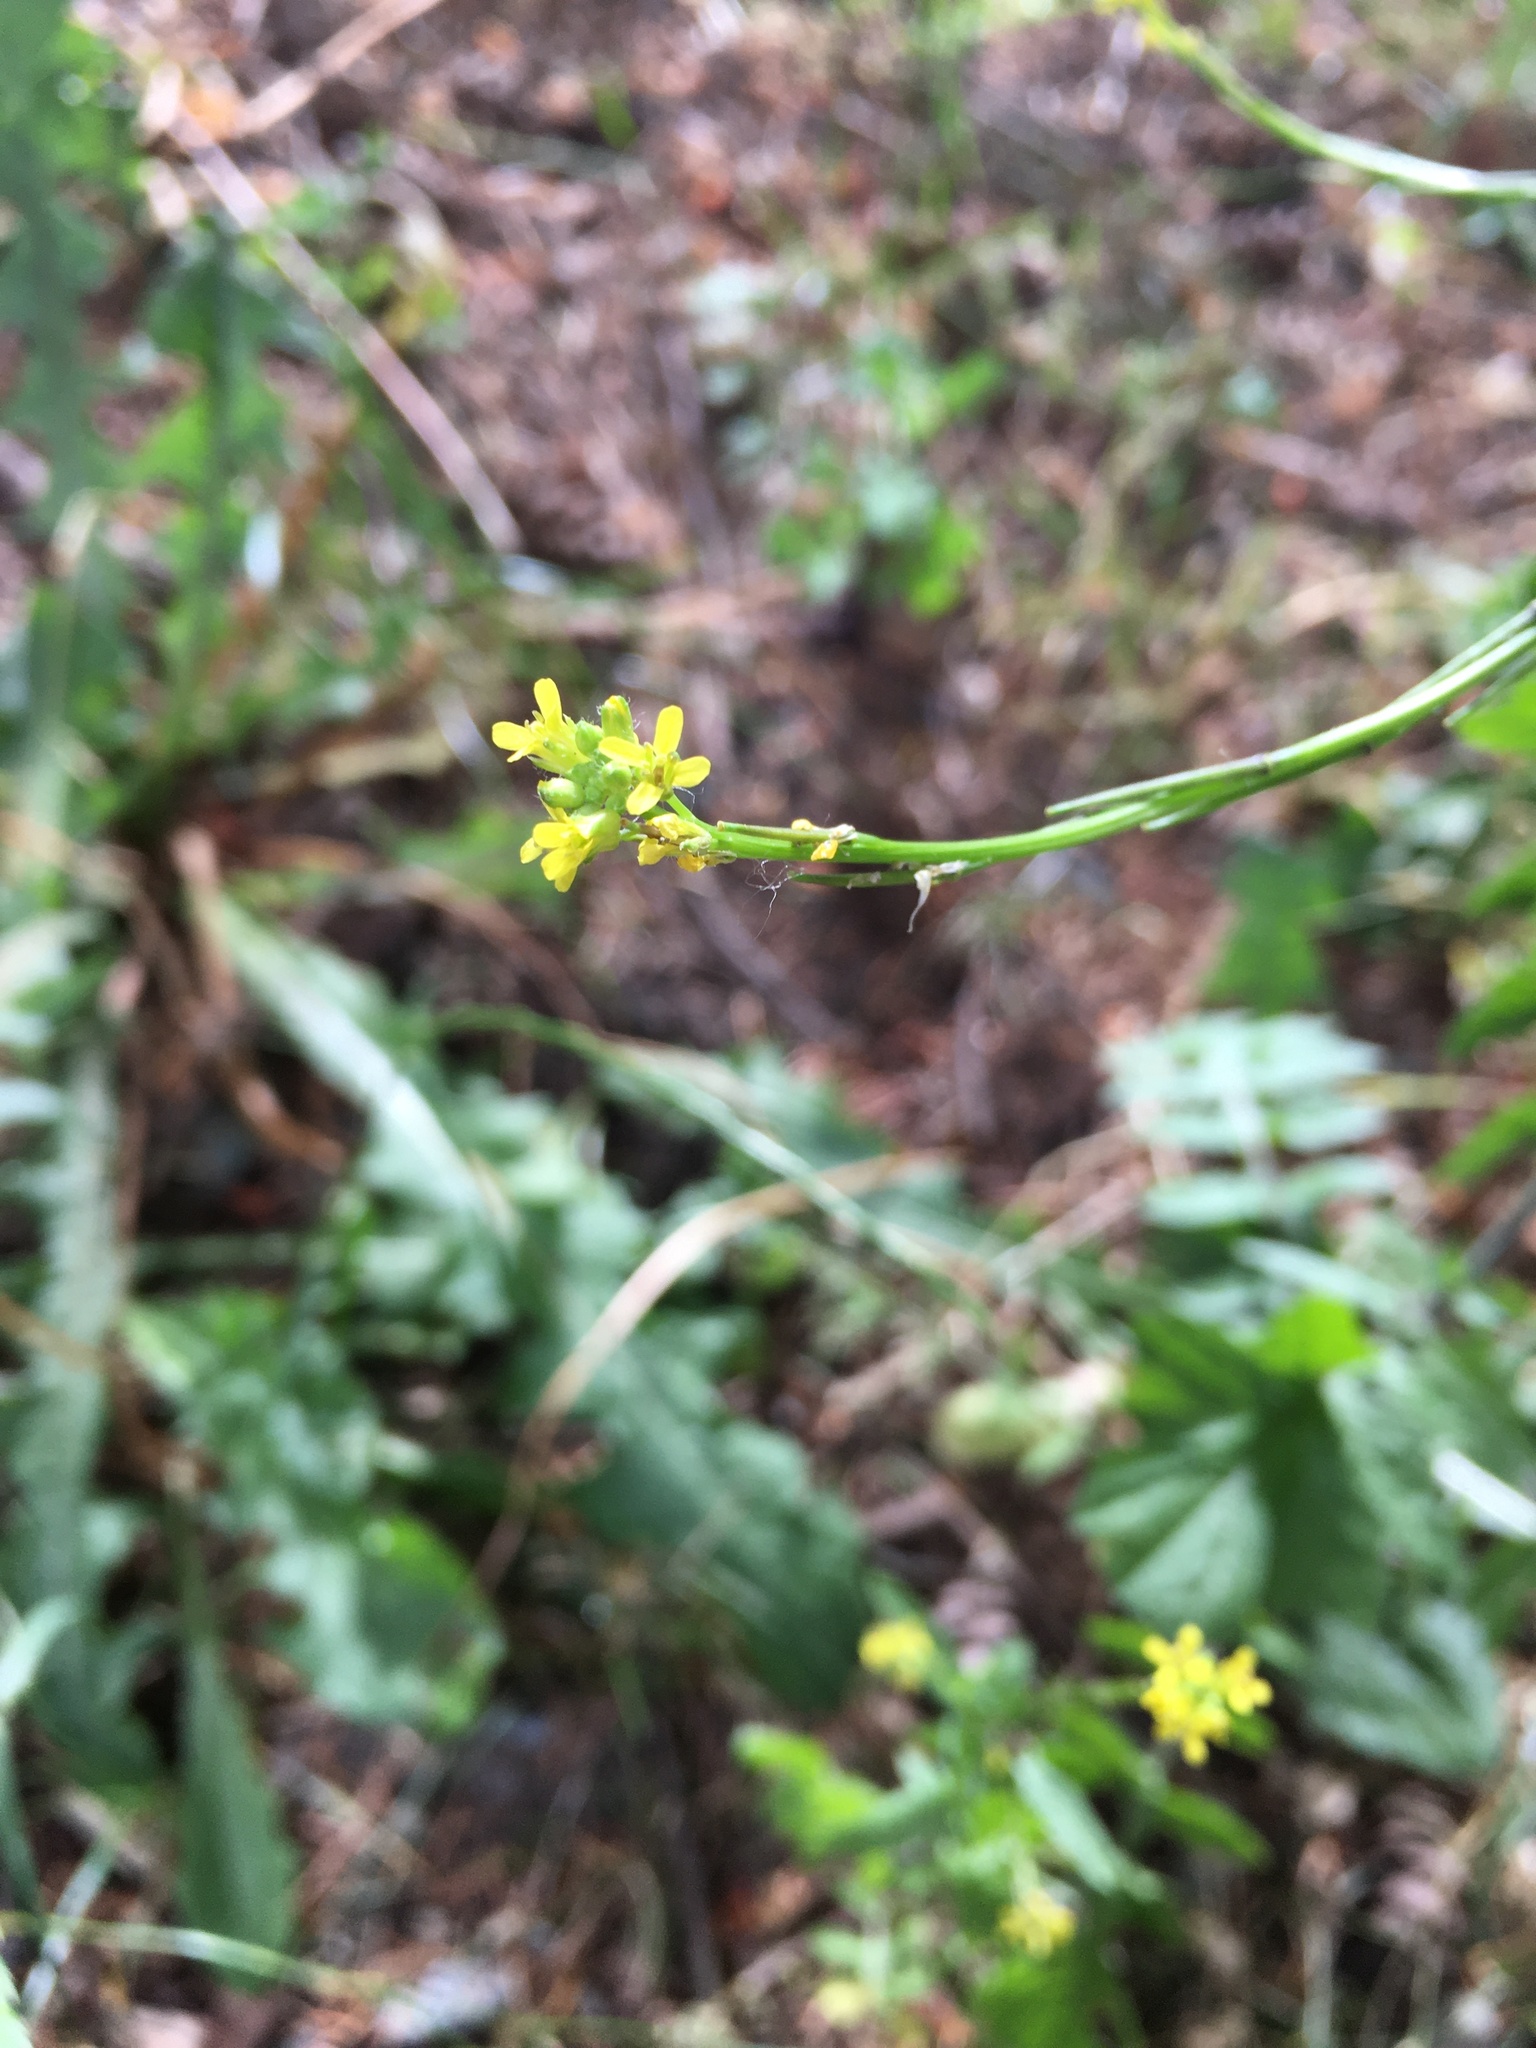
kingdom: Plantae
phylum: Tracheophyta
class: Magnoliopsida
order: Brassicales
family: Brassicaceae
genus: Sisymbrium
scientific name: Sisymbrium officinale
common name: Hedge mustard
